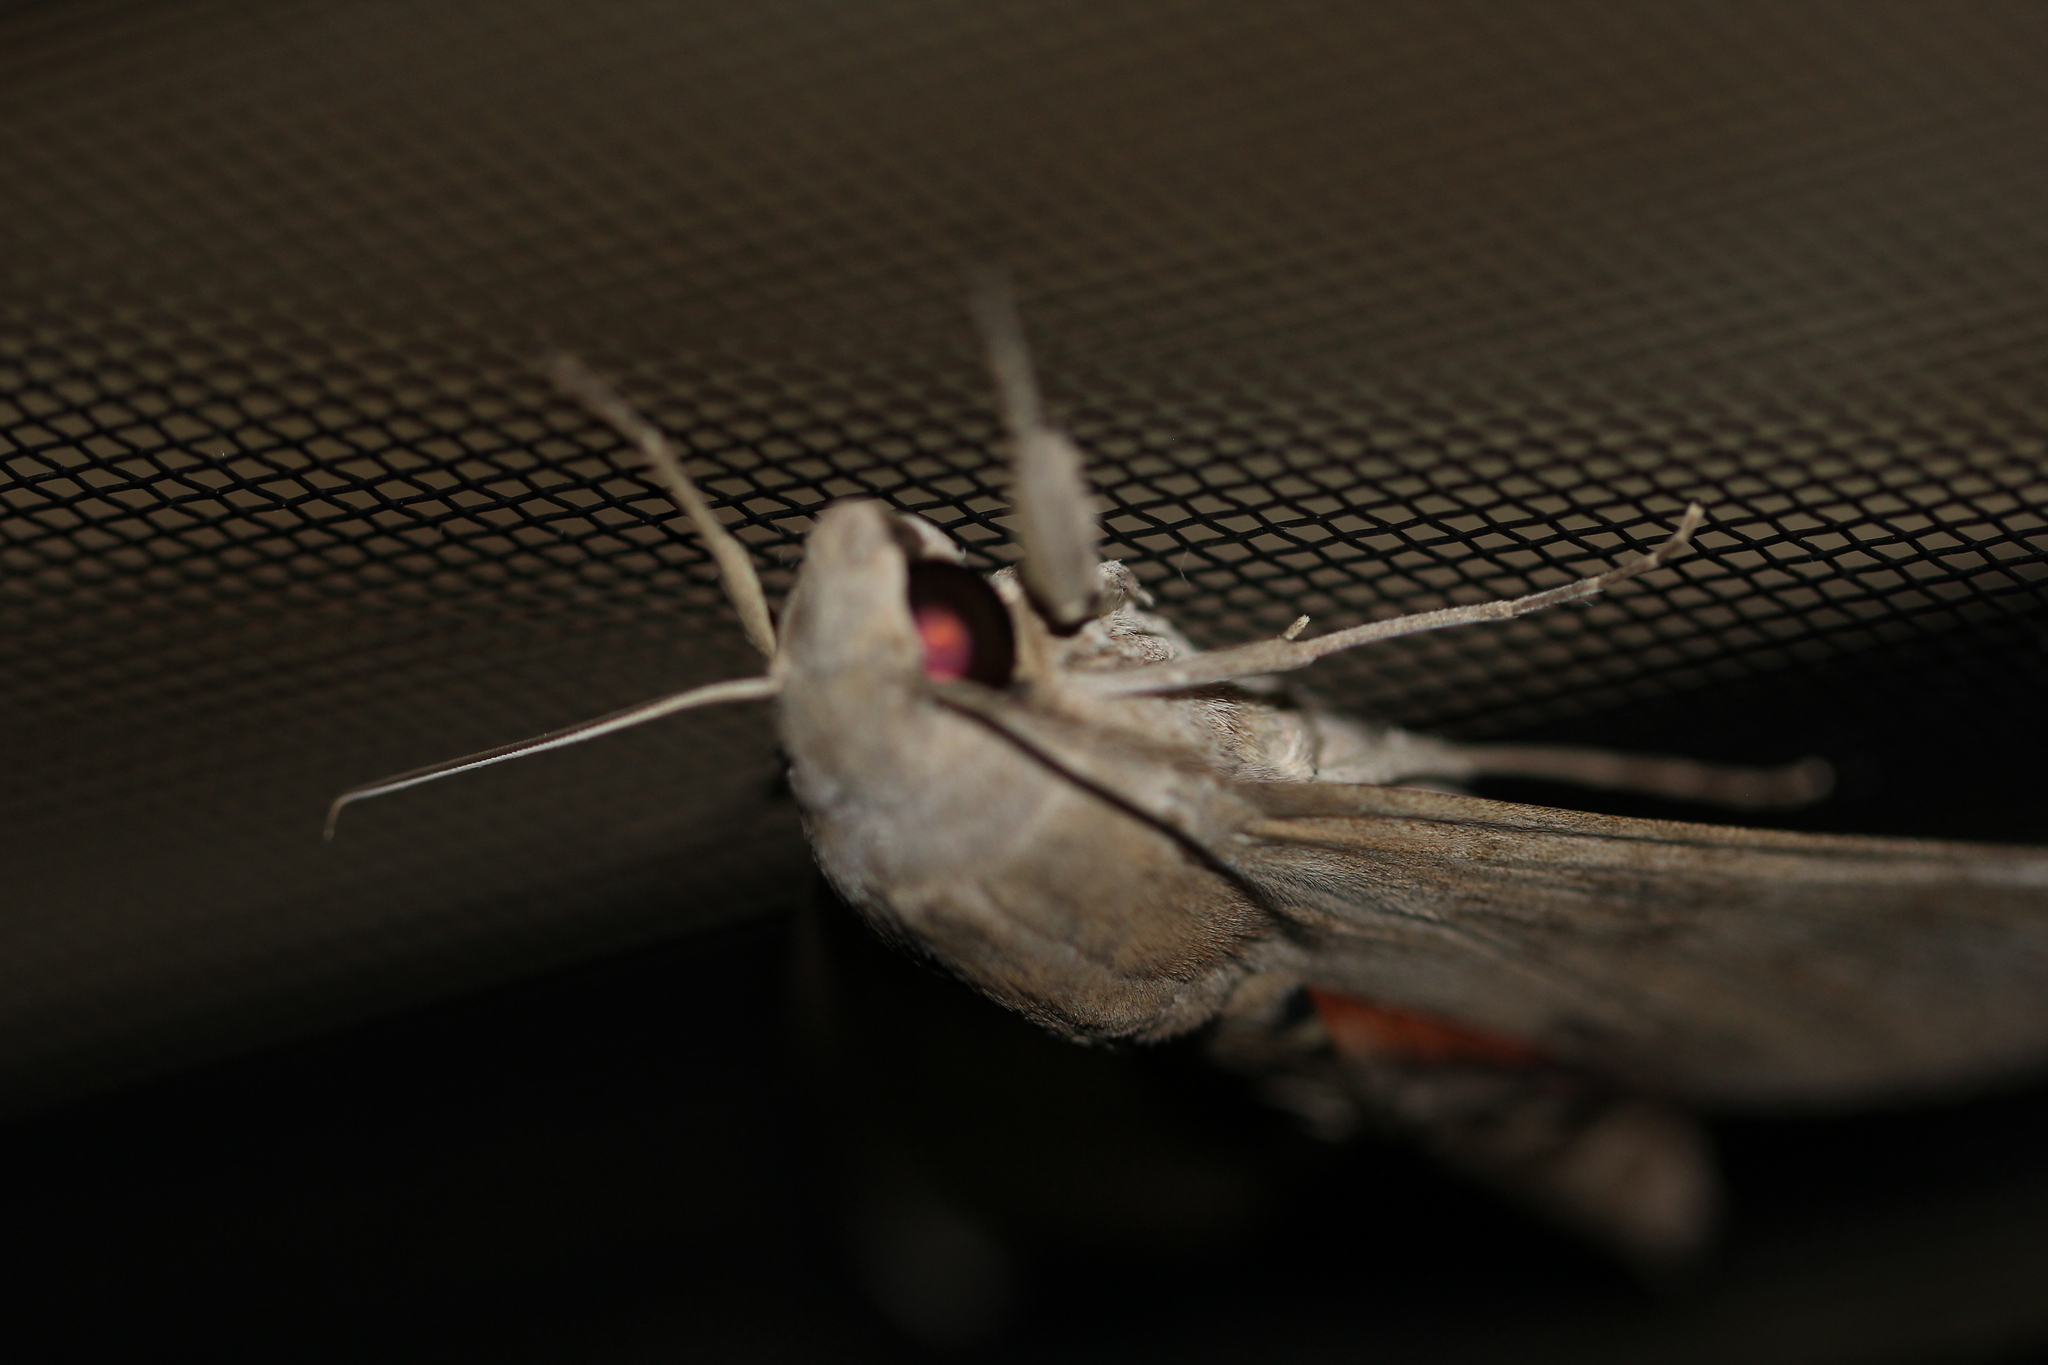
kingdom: Animalia
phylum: Arthropoda
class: Insecta
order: Lepidoptera
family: Sphingidae
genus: Erinnyis
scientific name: Erinnyis ello
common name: Ello sphinx
